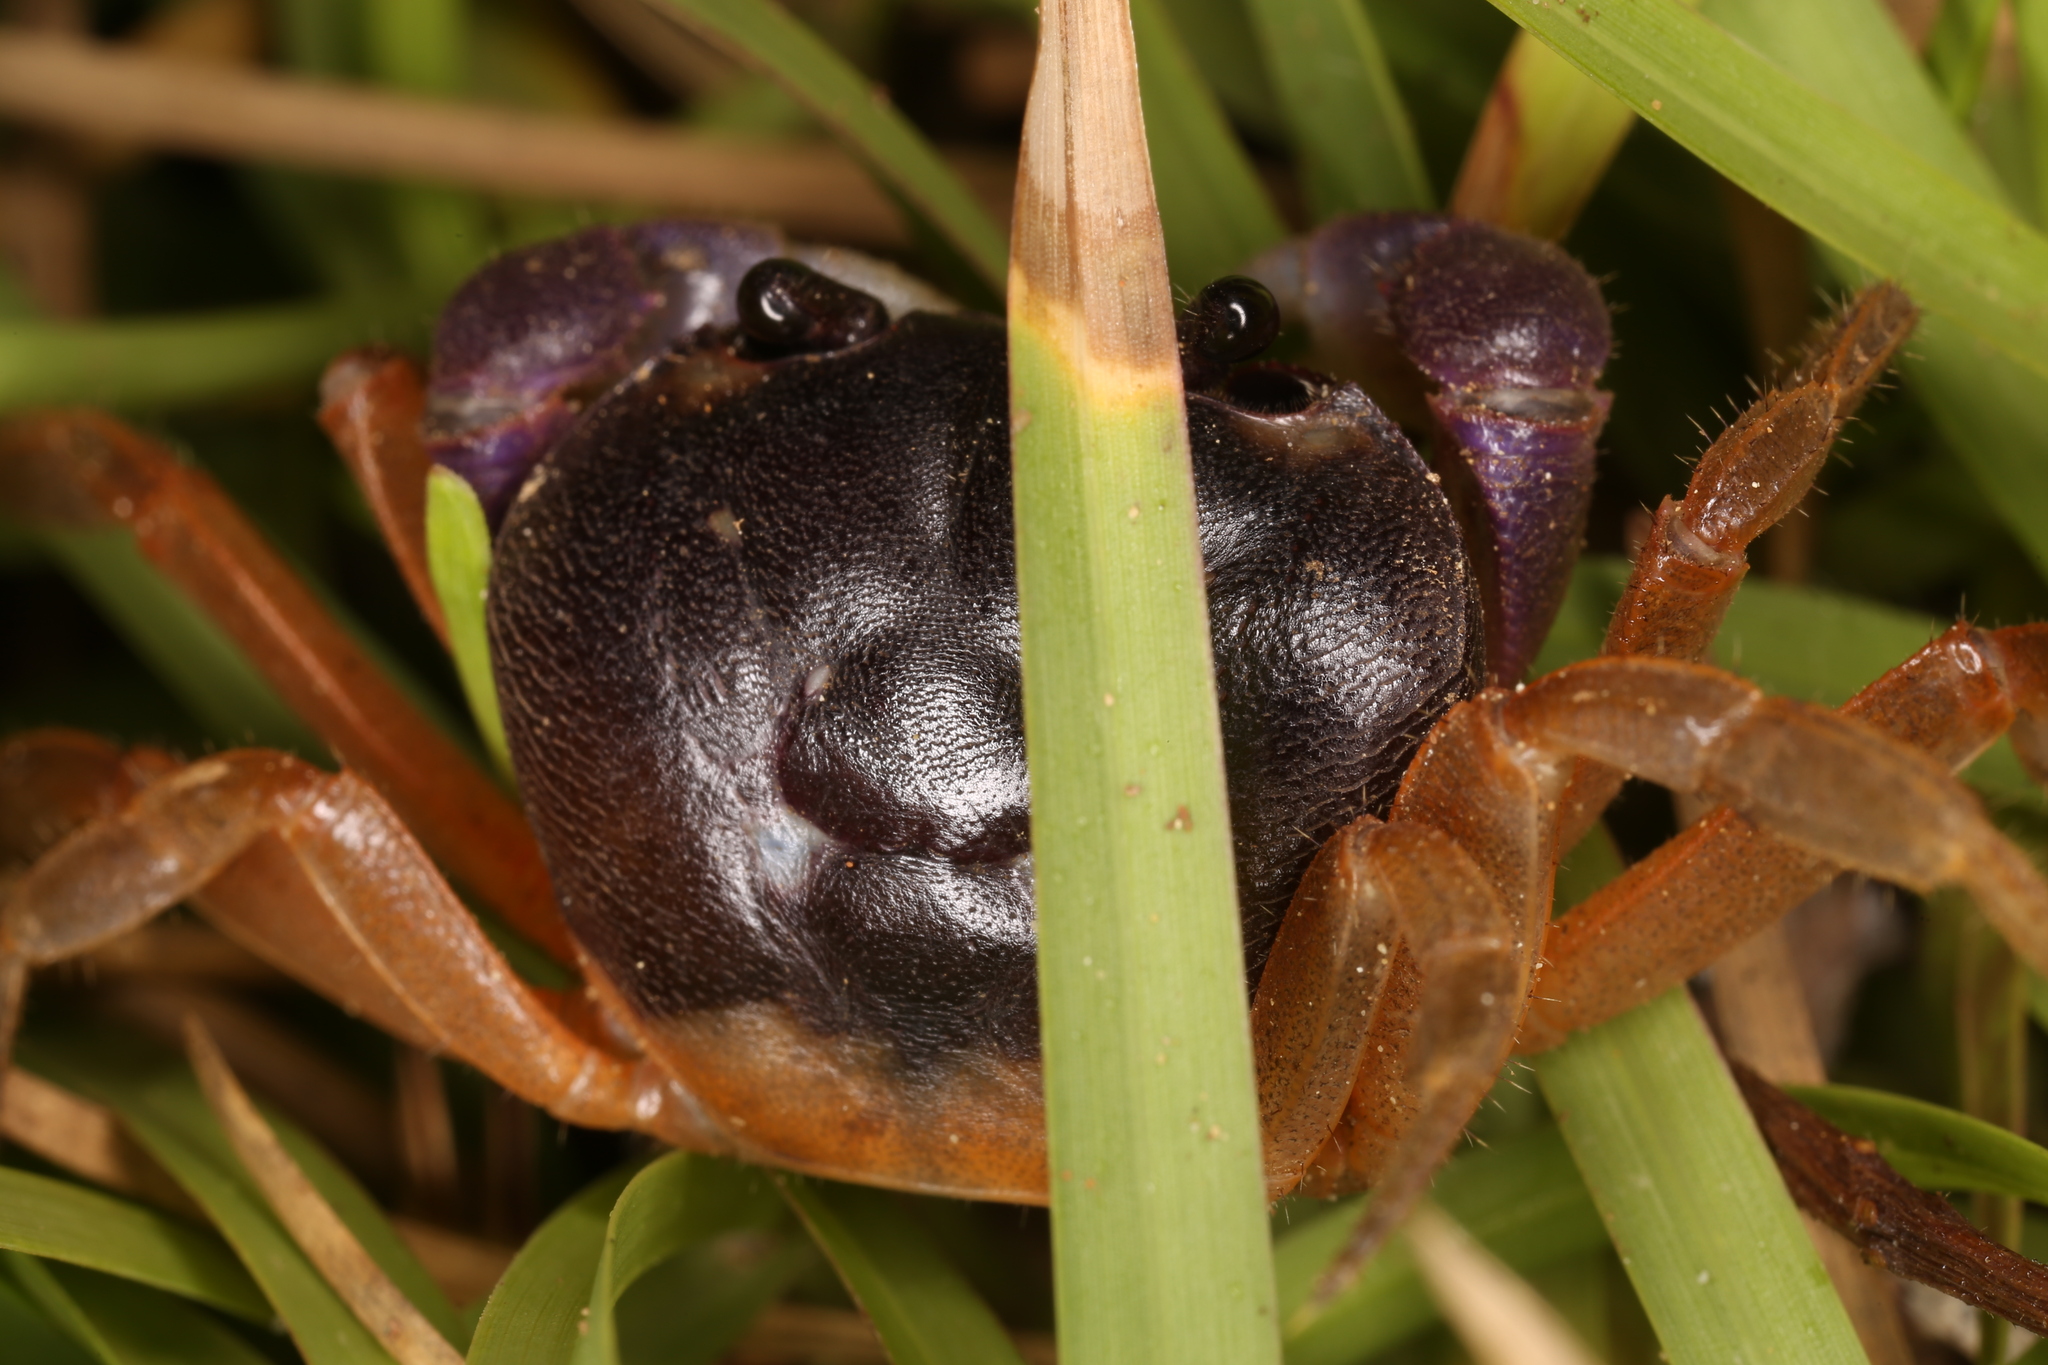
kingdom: Animalia
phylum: Arthropoda
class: Malacostraca
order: Decapoda
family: Gecarcinidae
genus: Gecarcinus
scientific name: Gecarcinus quadratus
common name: Halloween crab
